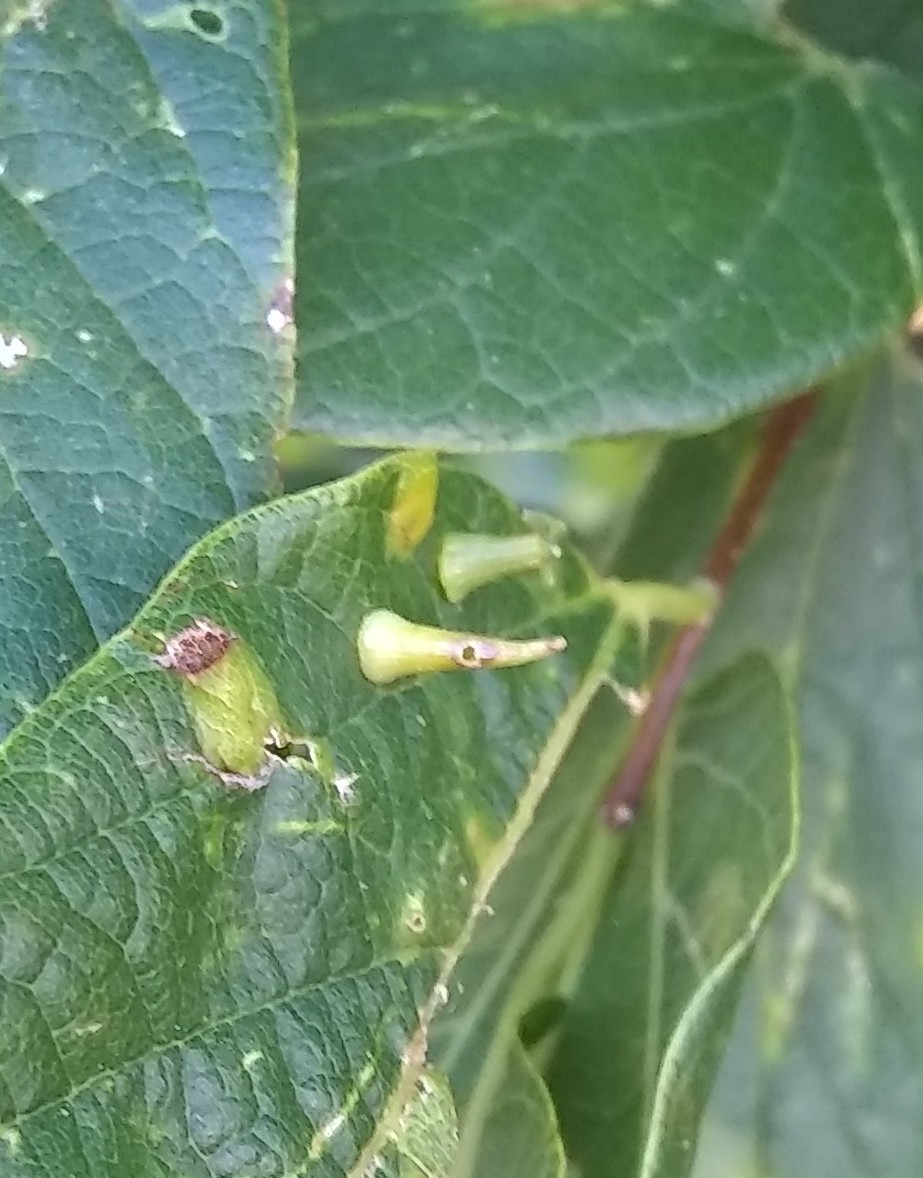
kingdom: Animalia
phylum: Arthropoda
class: Insecta
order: Diptera
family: Cecidomyiidae
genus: Celticecis
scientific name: Celticecis spiniformis
